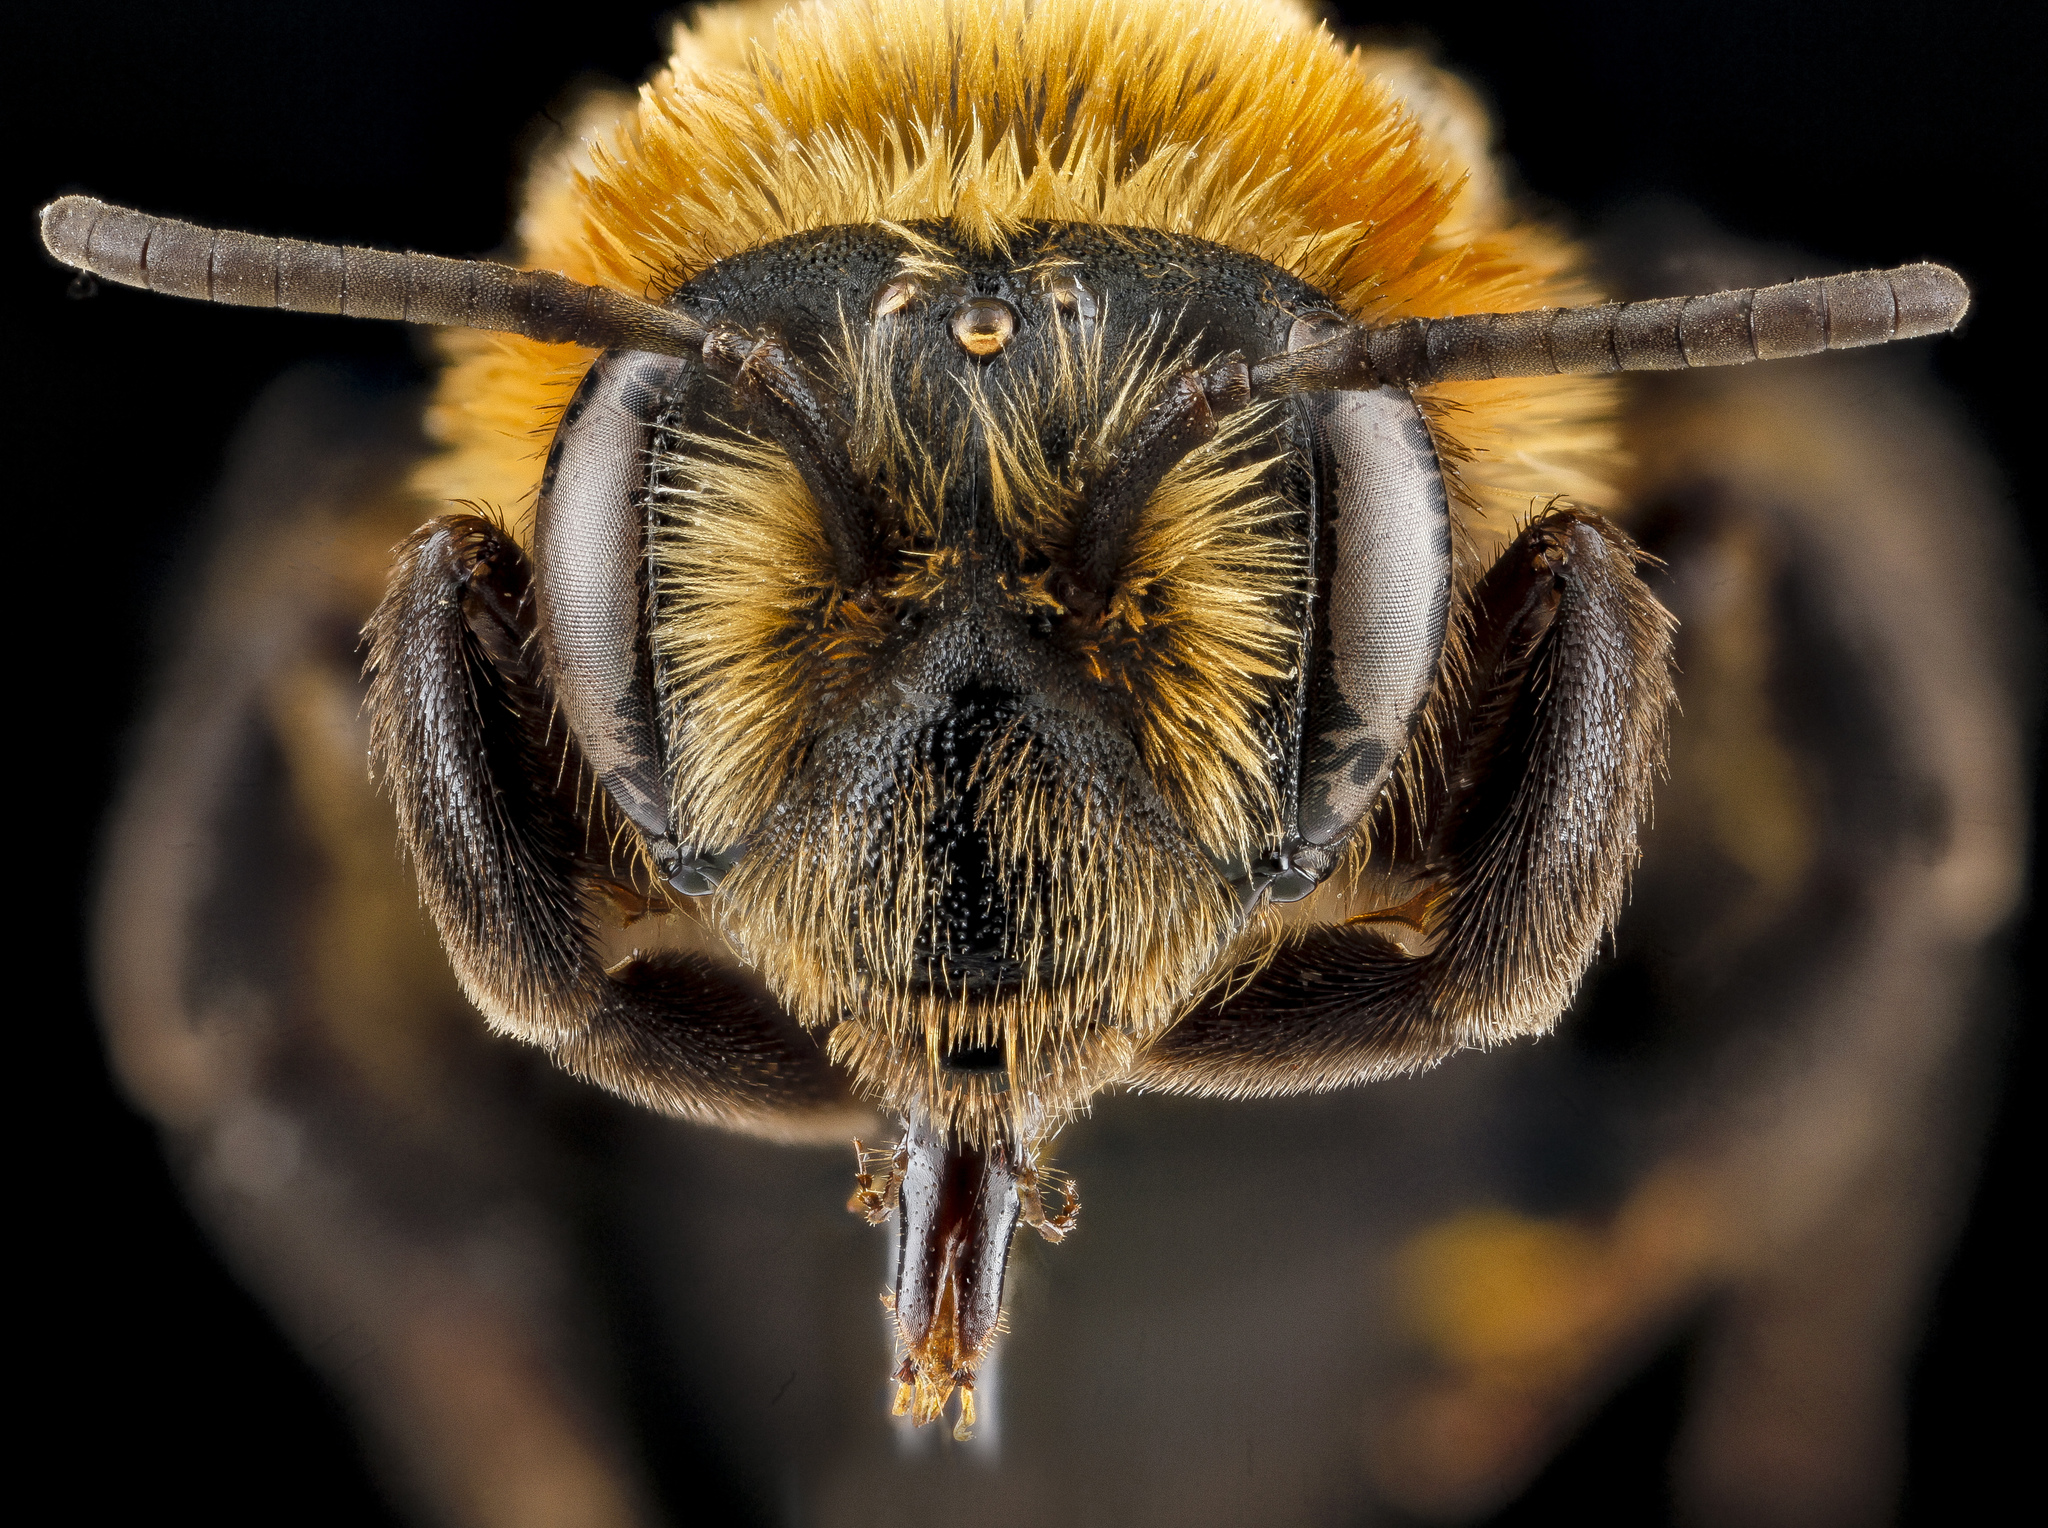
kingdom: Animalia
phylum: Arthropoda
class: Insecta
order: Hymenoptera
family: Andrenidae
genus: Andrena
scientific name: Andrena lupinorum
